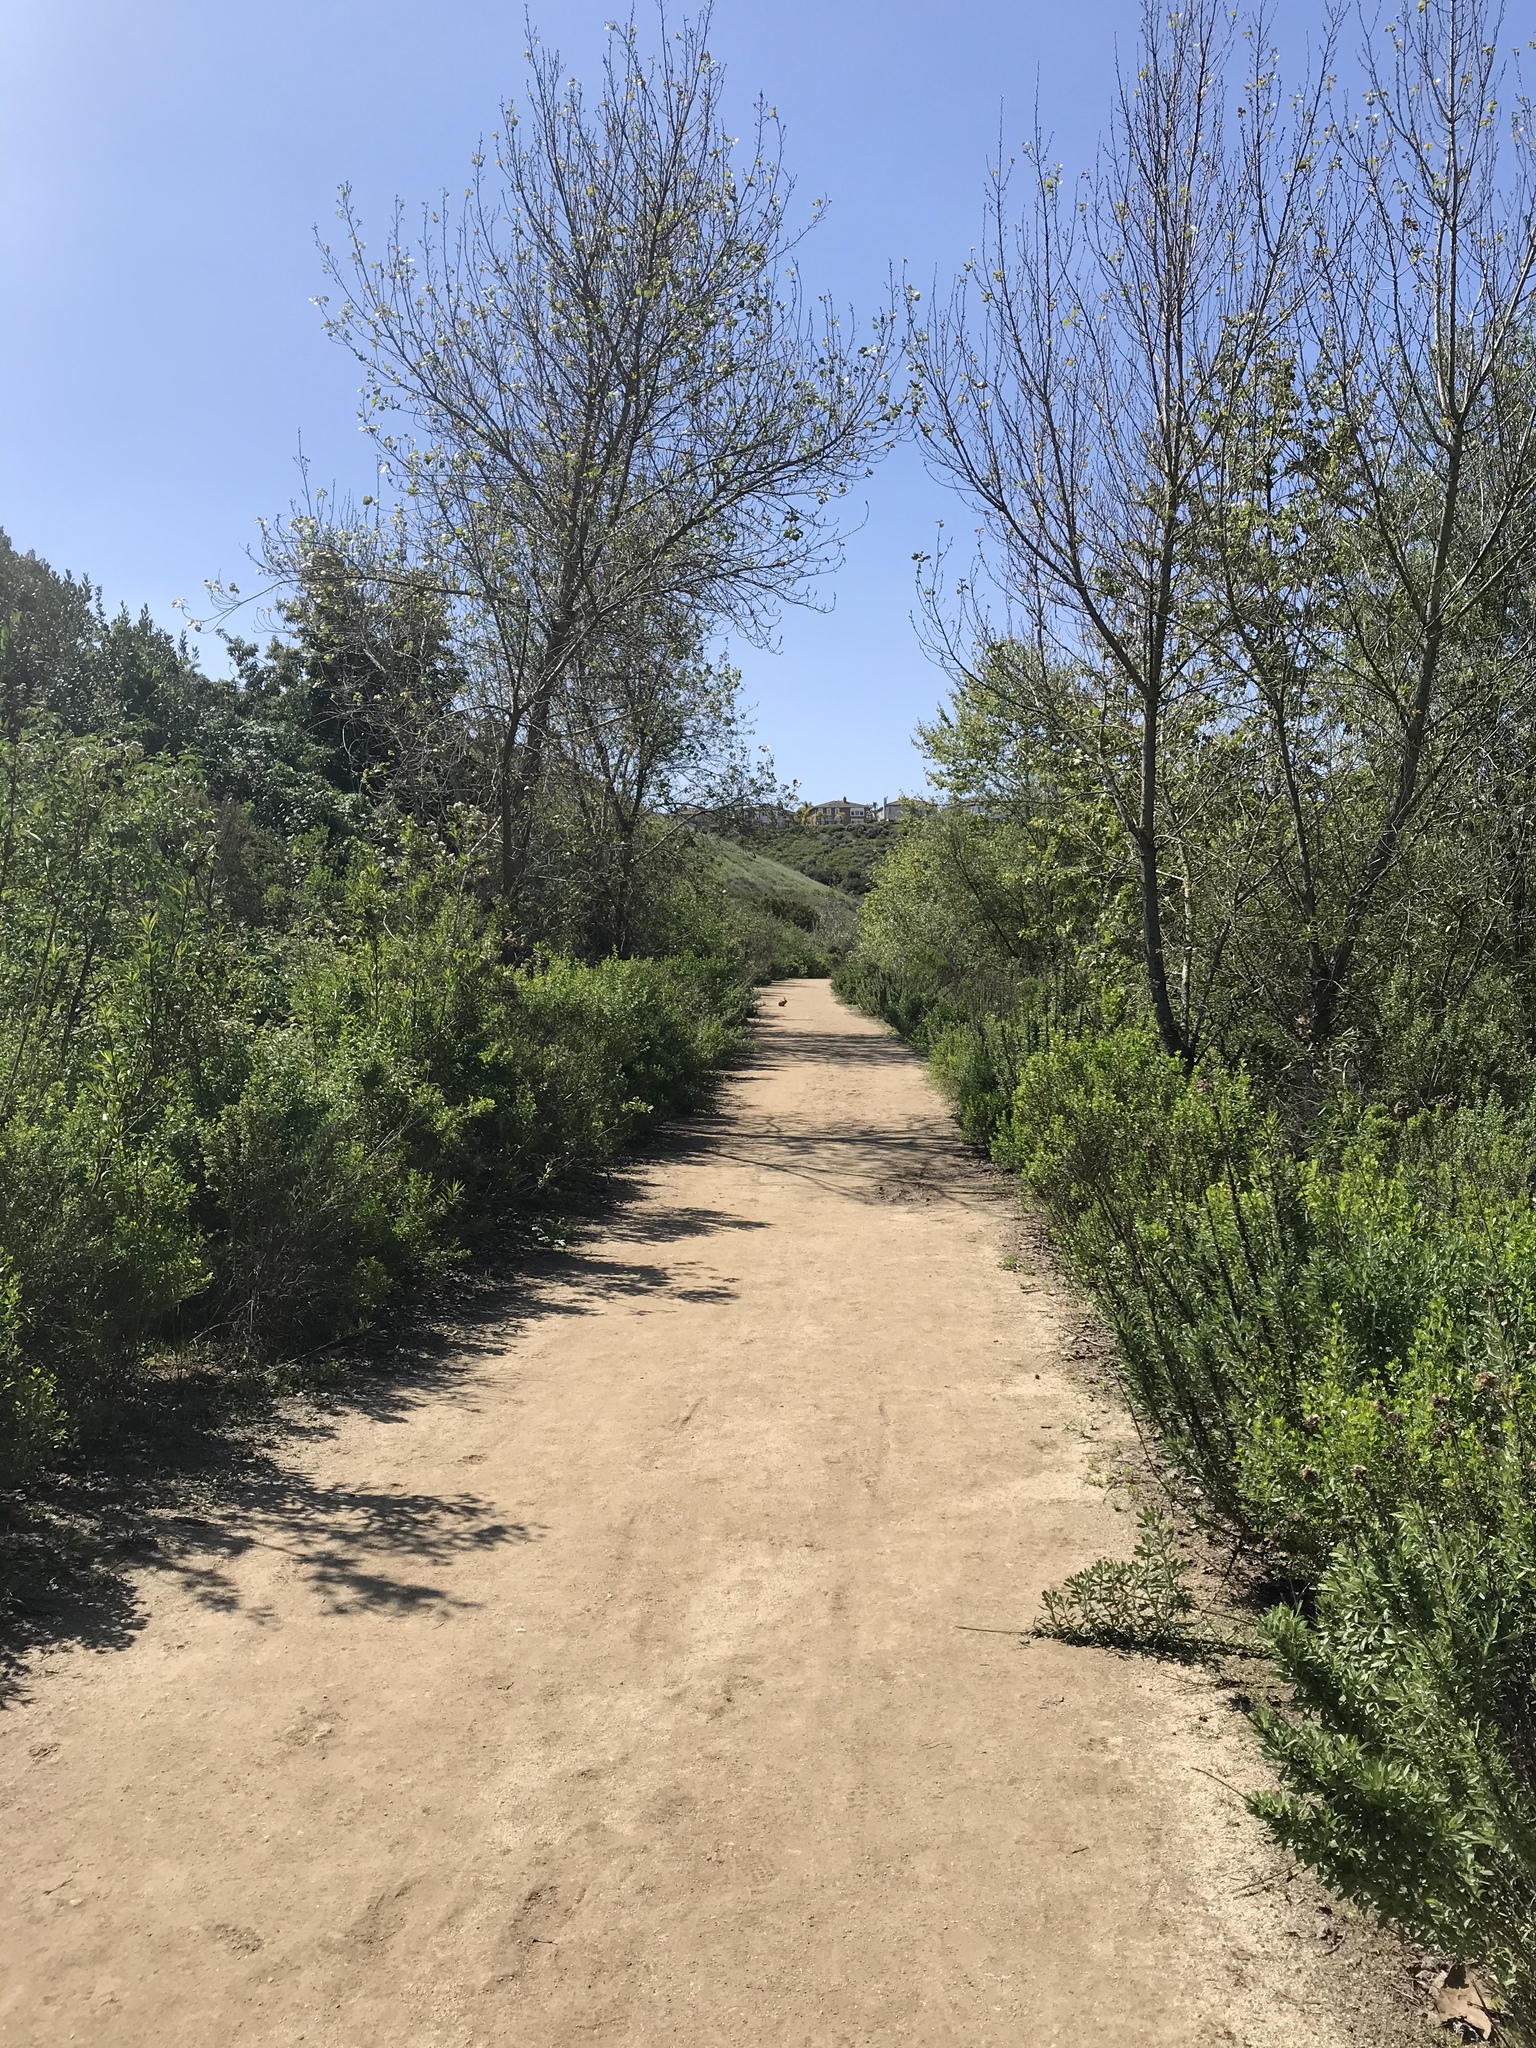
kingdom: Animalia
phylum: Chordata
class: Mammalia
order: Lagomorpha
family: Leporidae
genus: Sylvilagus
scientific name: Sylvilagus audubonii
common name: Desert cottontail
